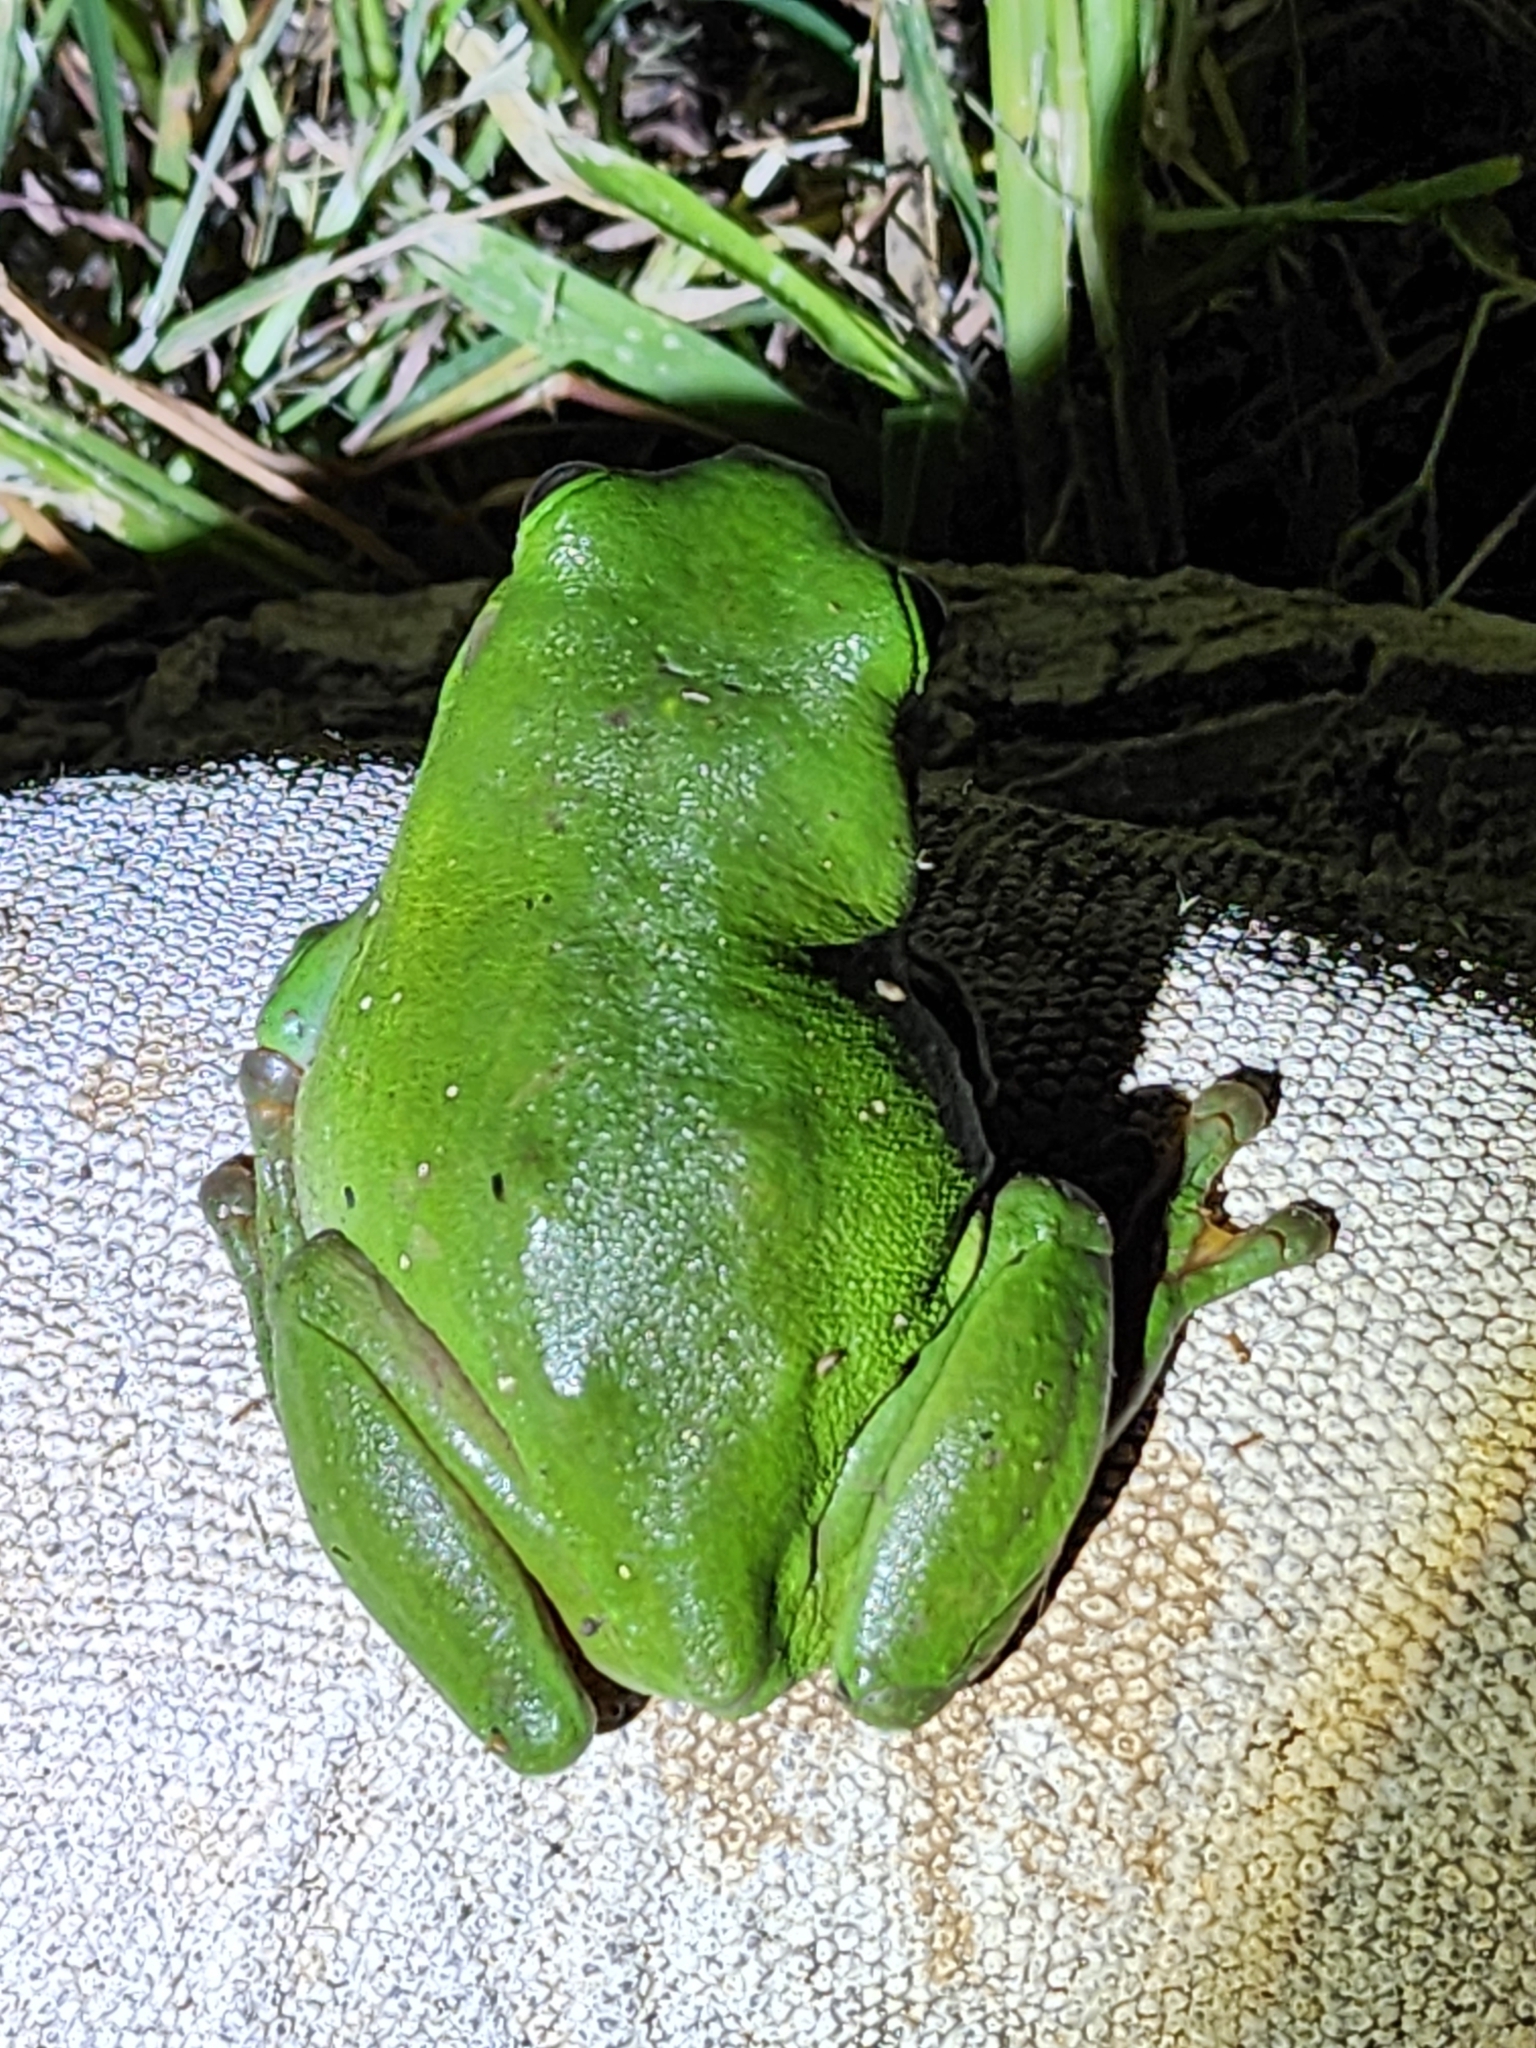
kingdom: Animalia
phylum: Chordata
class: Amphibia
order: Anura
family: Pelodryadidae
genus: Ranoidea
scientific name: Ranoidea caerulea
